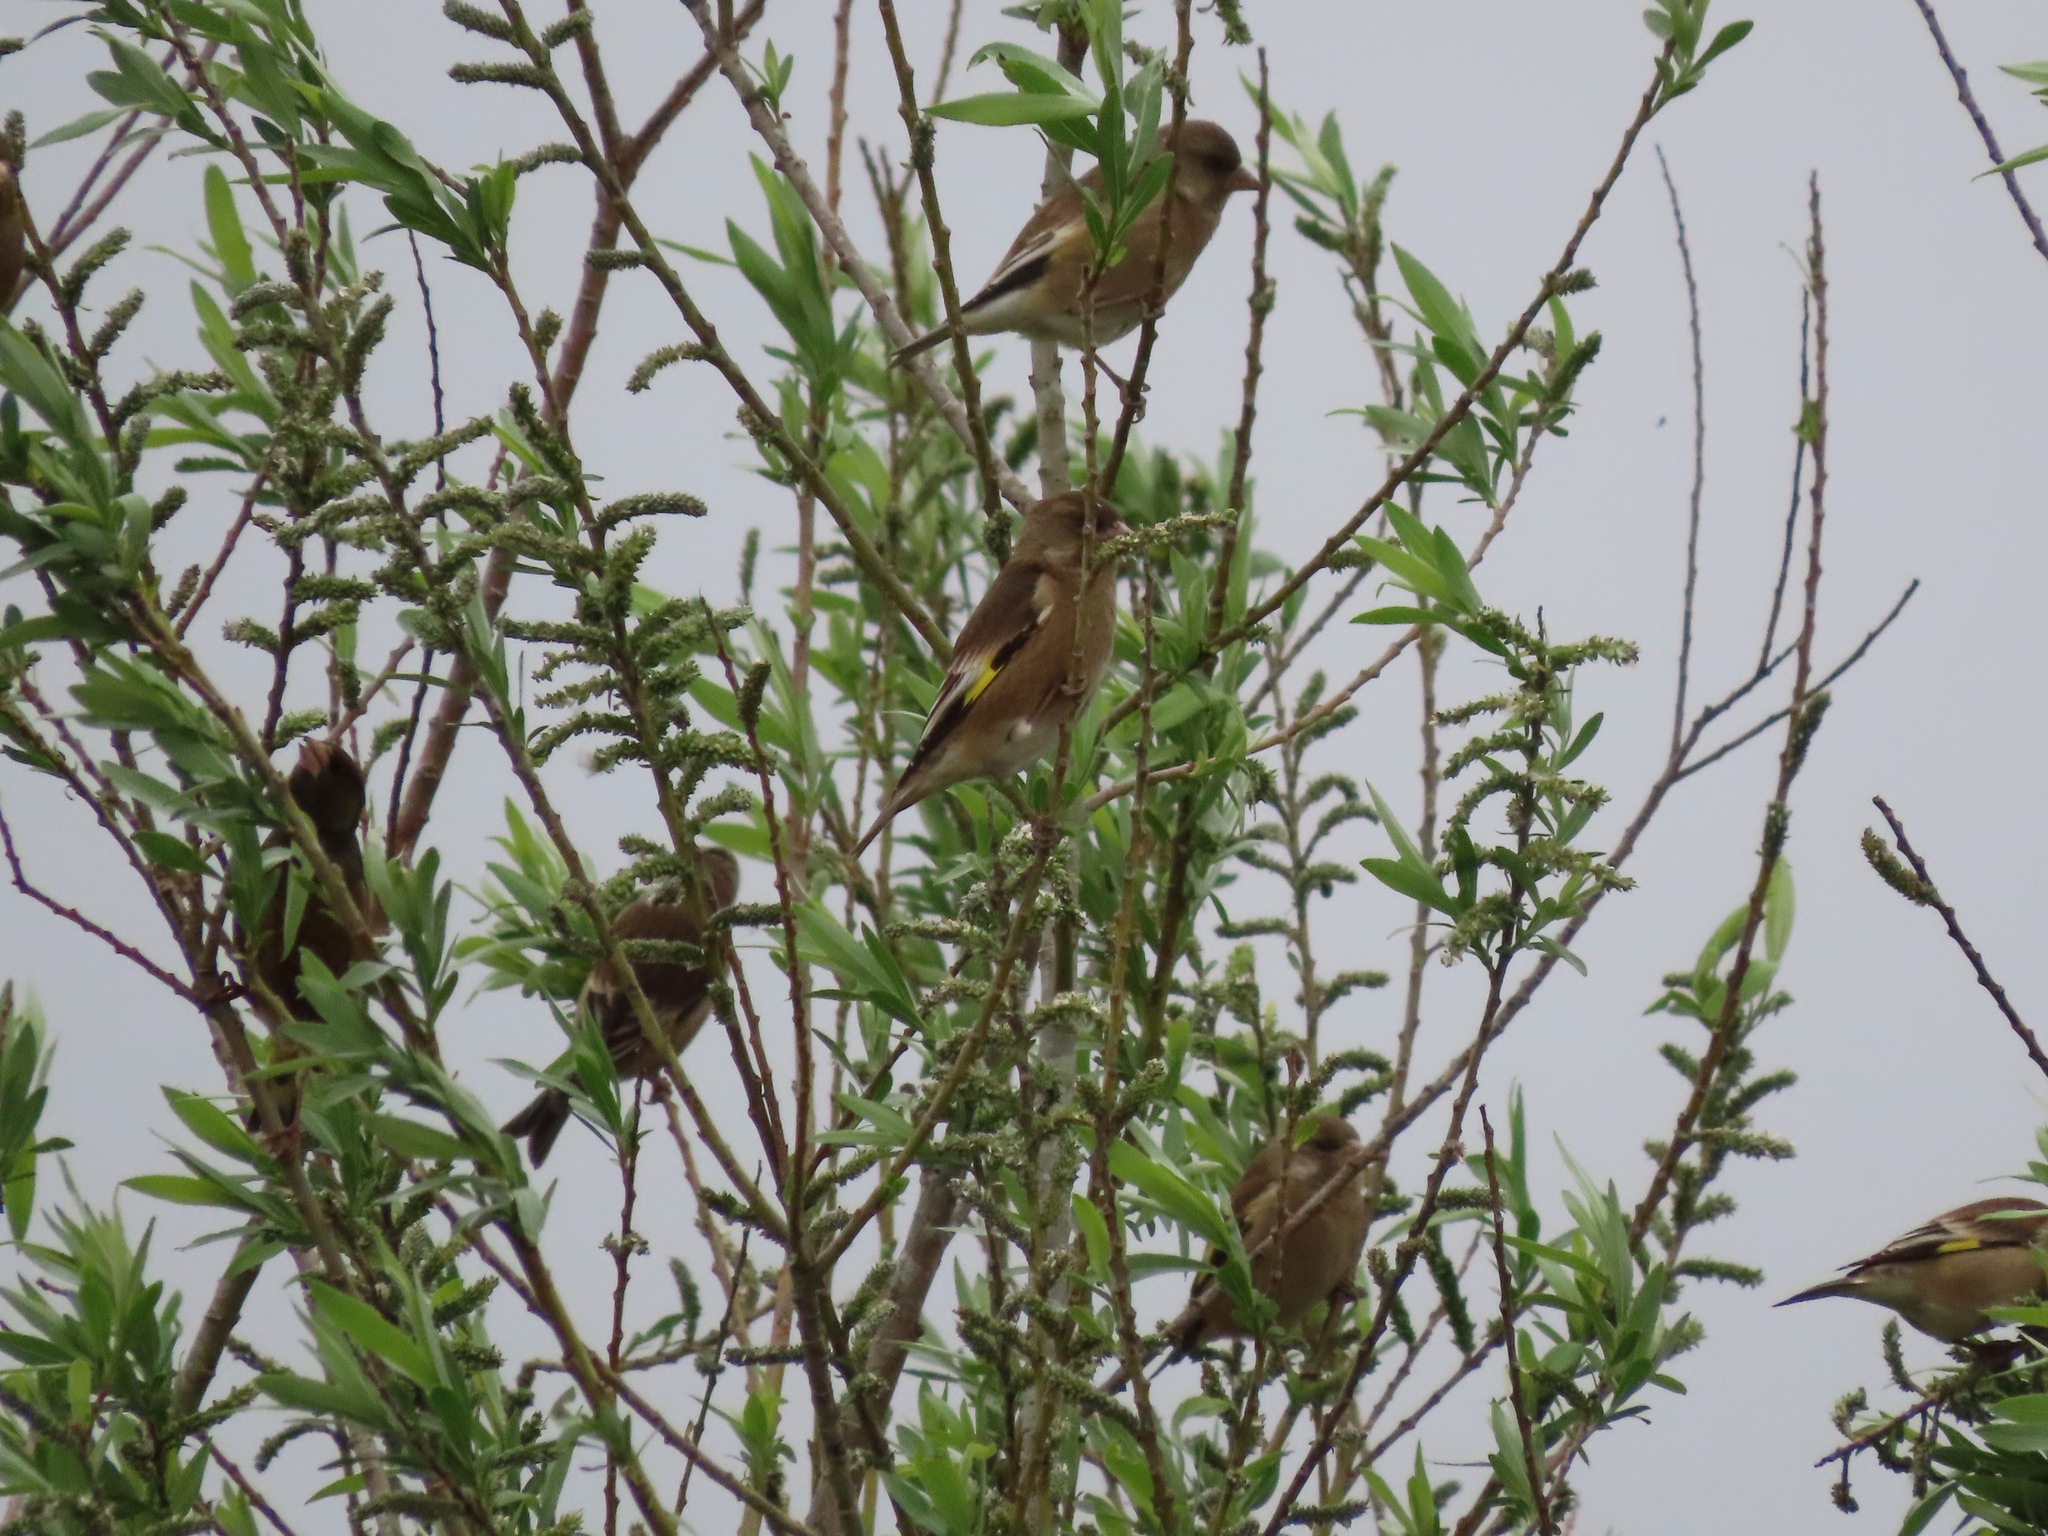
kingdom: Plantae
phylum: Tracheophyta
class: Liliopsida
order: Poales
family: Poaceae
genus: Chloris
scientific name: Chloris sinica
